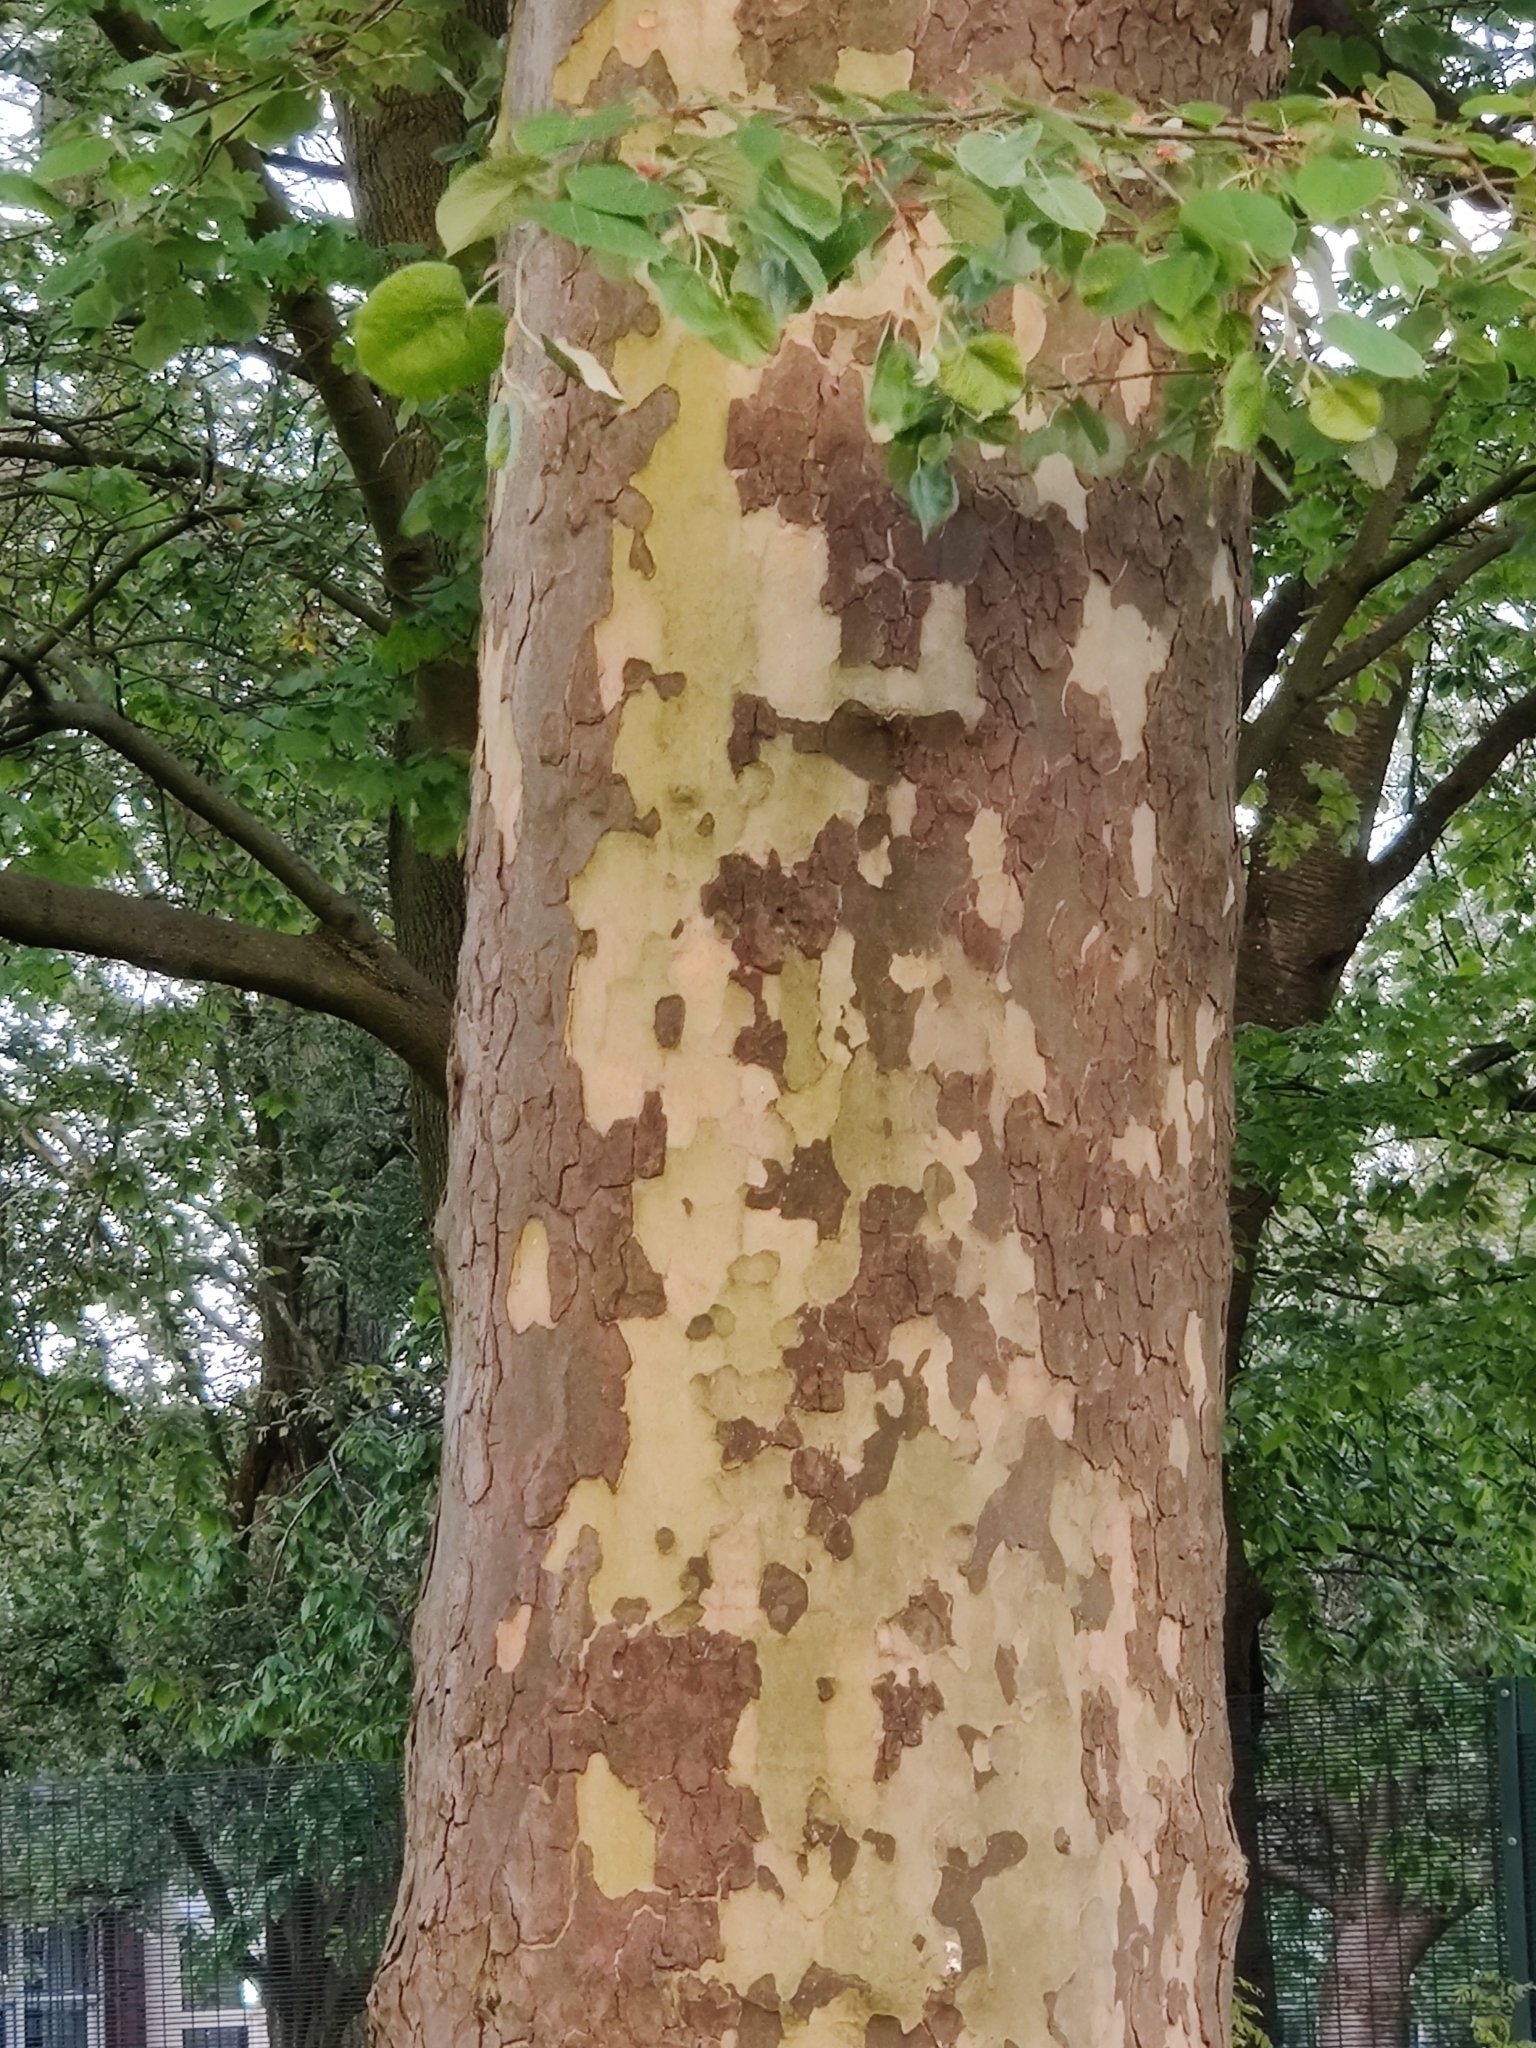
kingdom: Plantae
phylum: Tracheophyta
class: Magnoliopsida
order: Proteales
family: Platanaceae
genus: Platanus
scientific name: Platanus hispanica
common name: London plane
